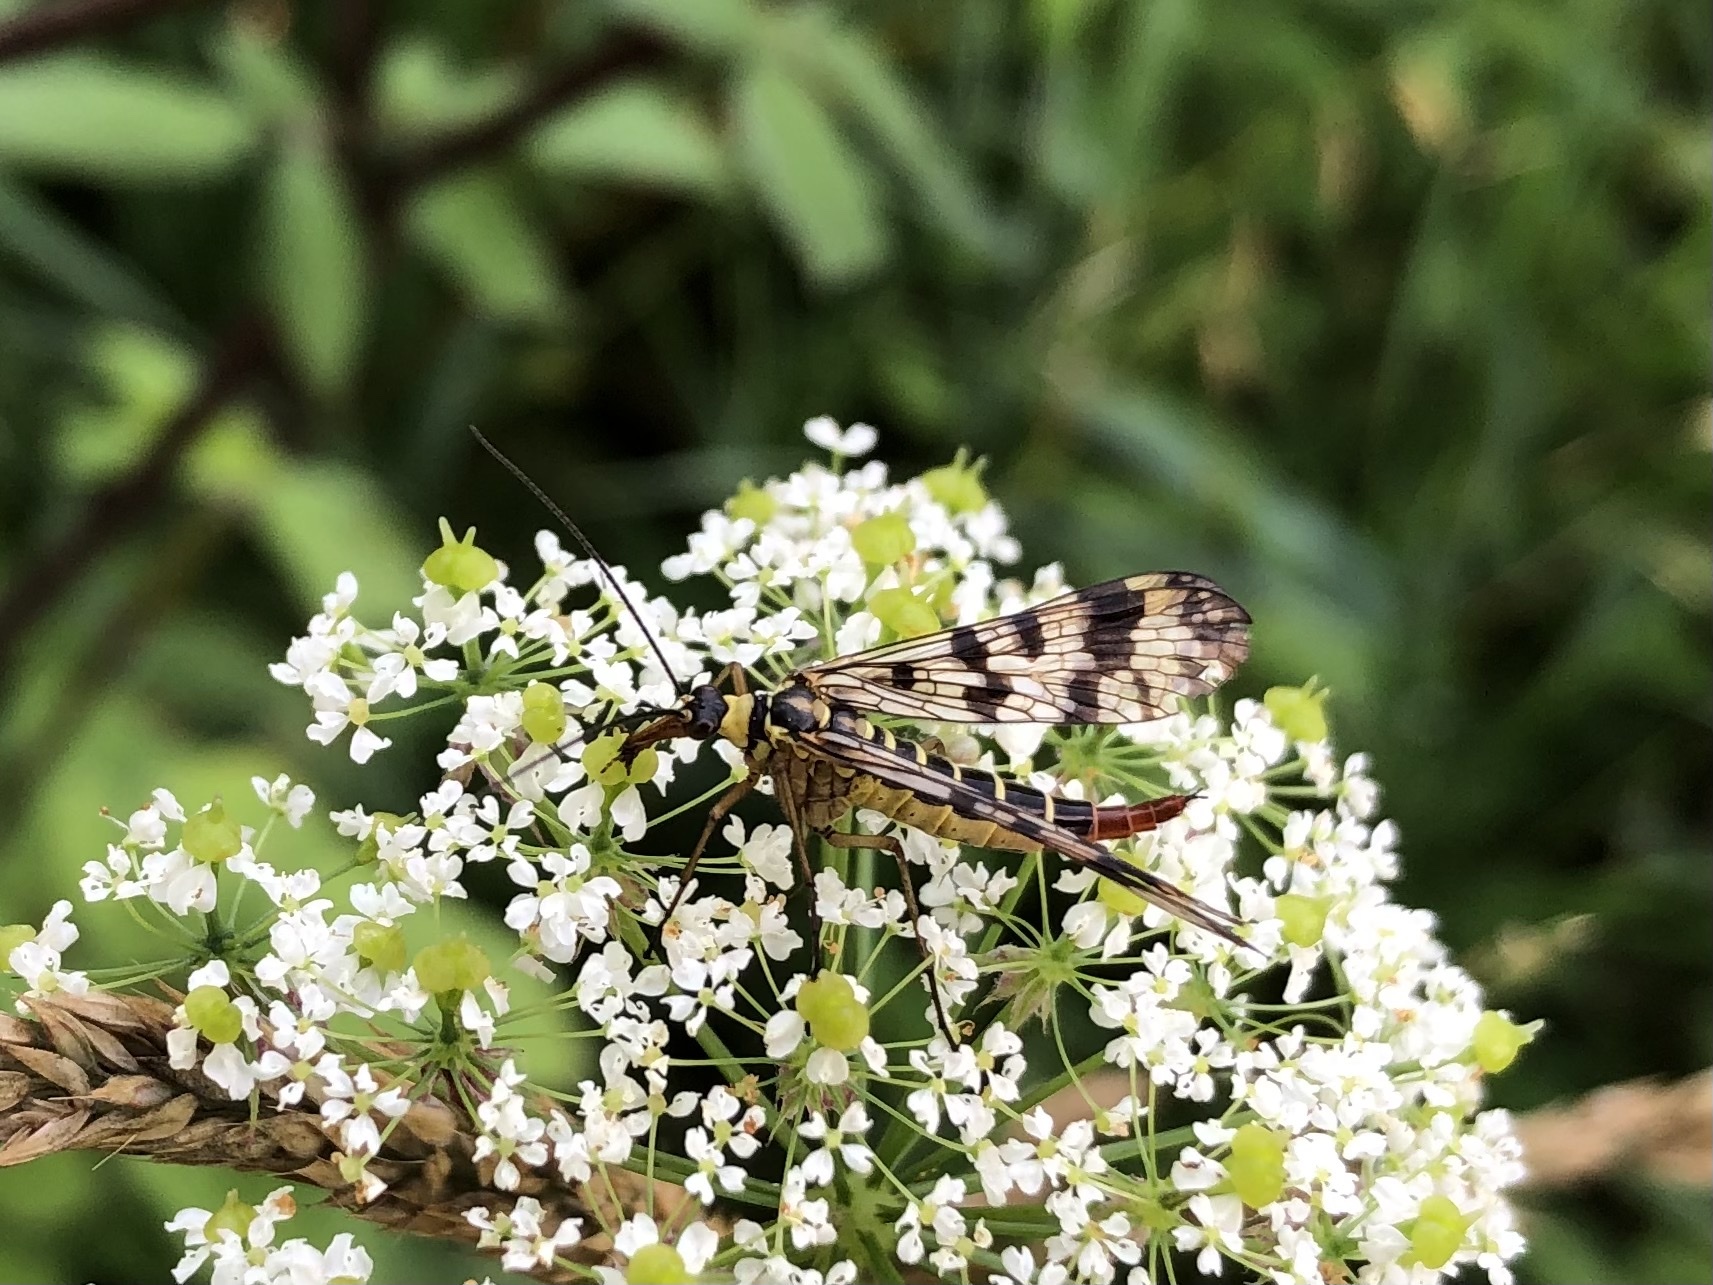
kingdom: Animalia
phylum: Arthropoda
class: Insecta
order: Mecoptera
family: Panorpidae
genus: Panorpa
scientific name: Panorpa communis
